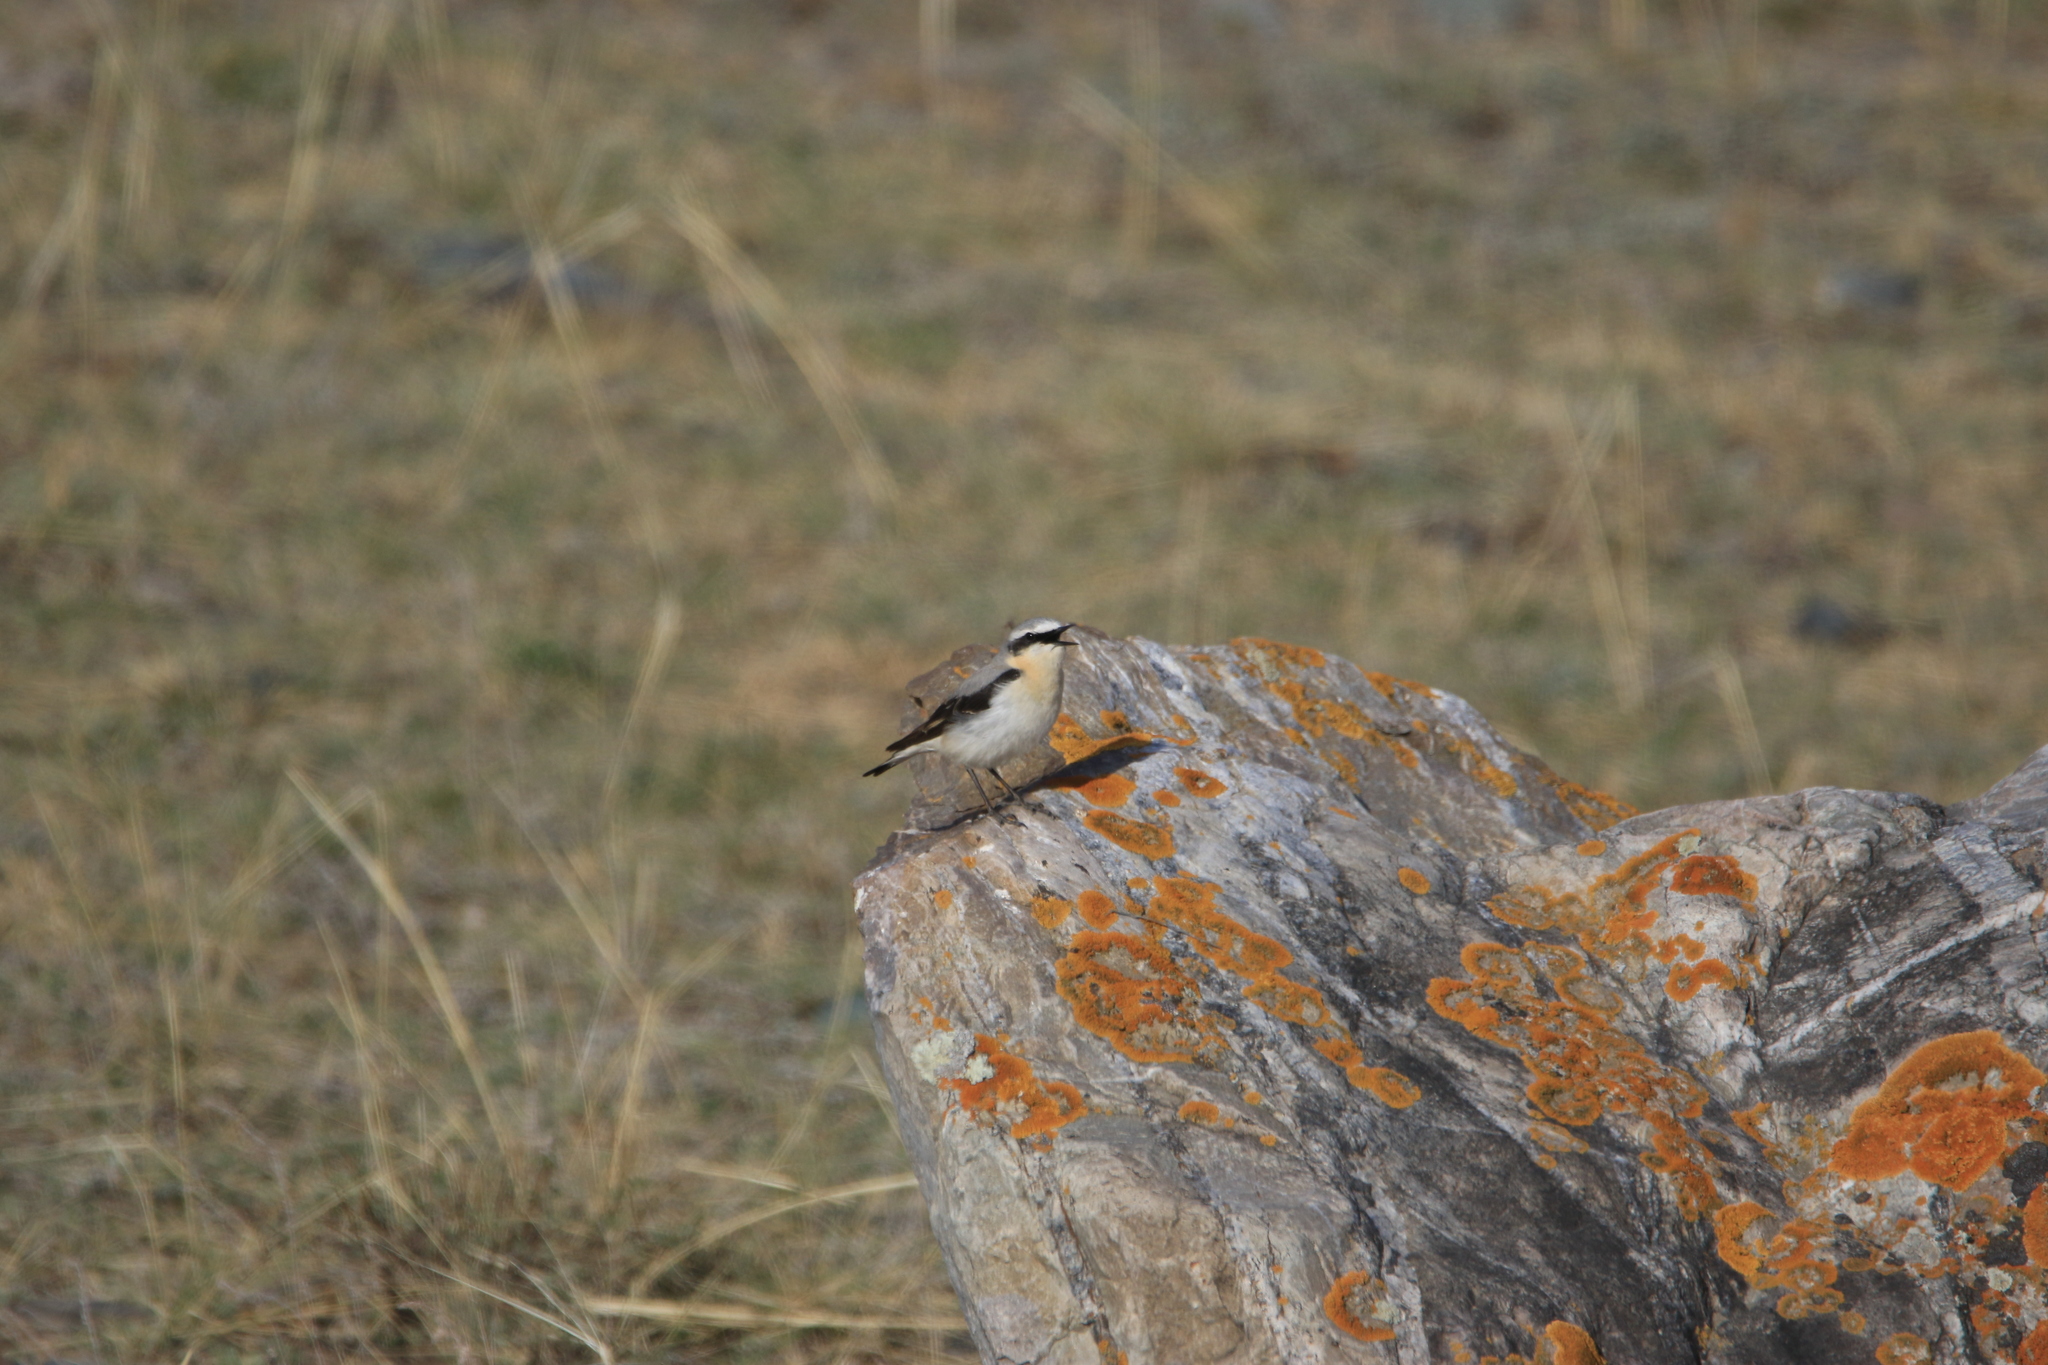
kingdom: Animalia
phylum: Chordata
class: Aves
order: Passeriformes
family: Muscicapidae
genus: Oenanthe
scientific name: Oenanthe oenanthe
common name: Northern wheatear
